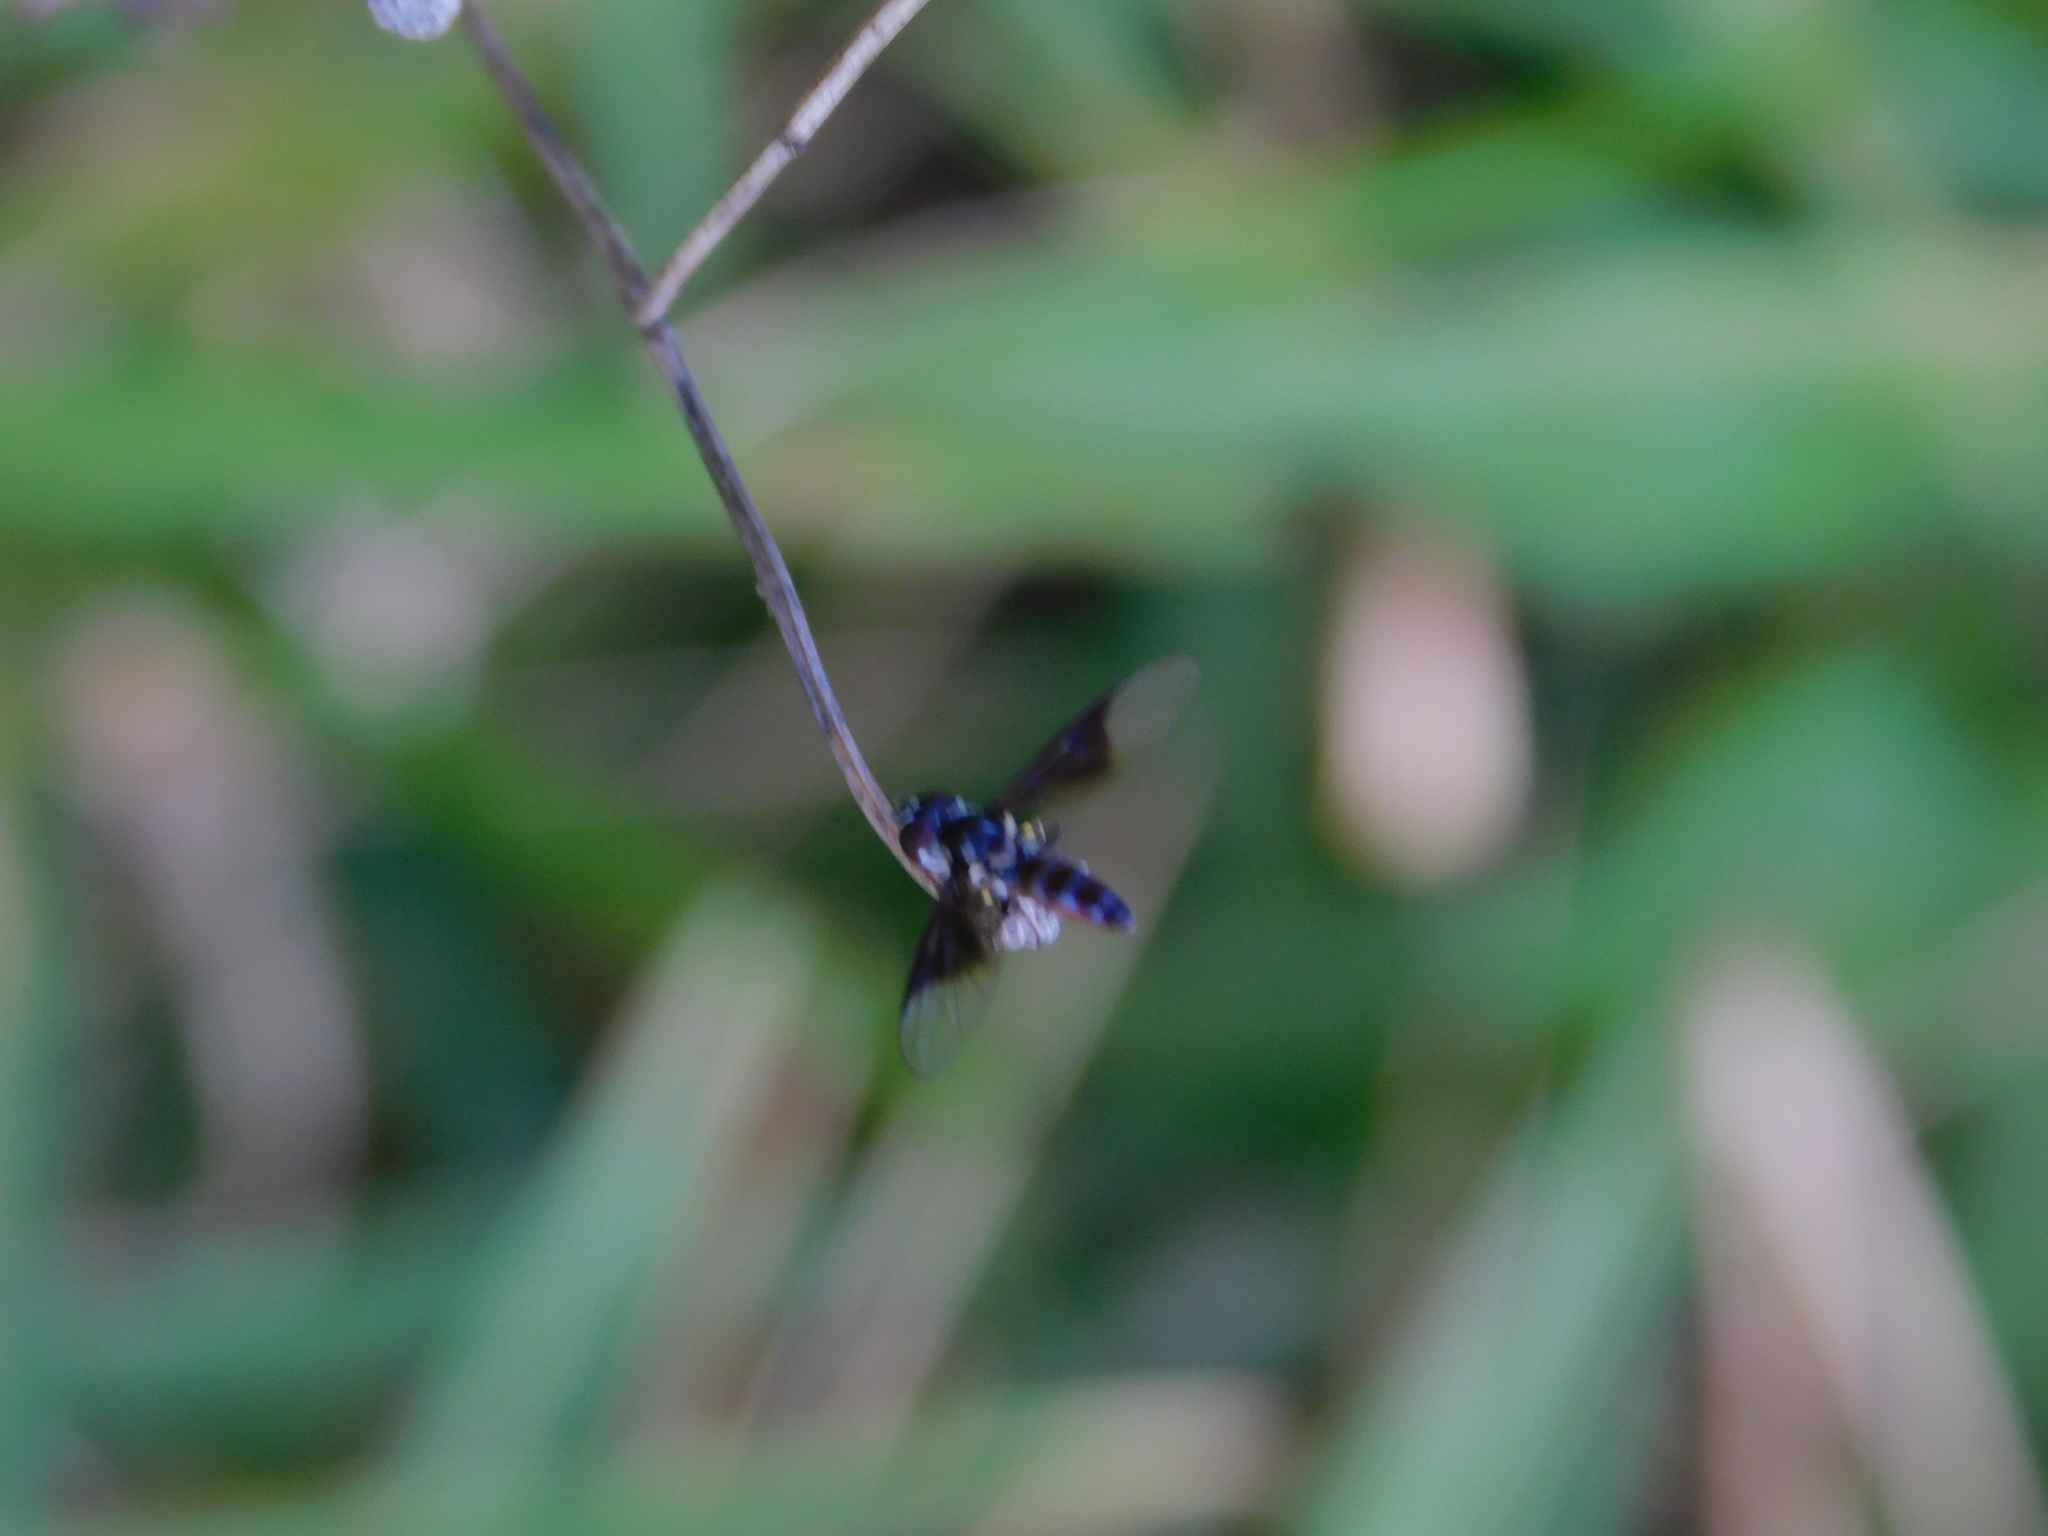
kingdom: Animalia
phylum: Arthropoda
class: Insecta
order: Diptera
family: Syrphidae
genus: Ocyptamus
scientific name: Ocyptamus dimidiatus
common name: Syrphid fly
